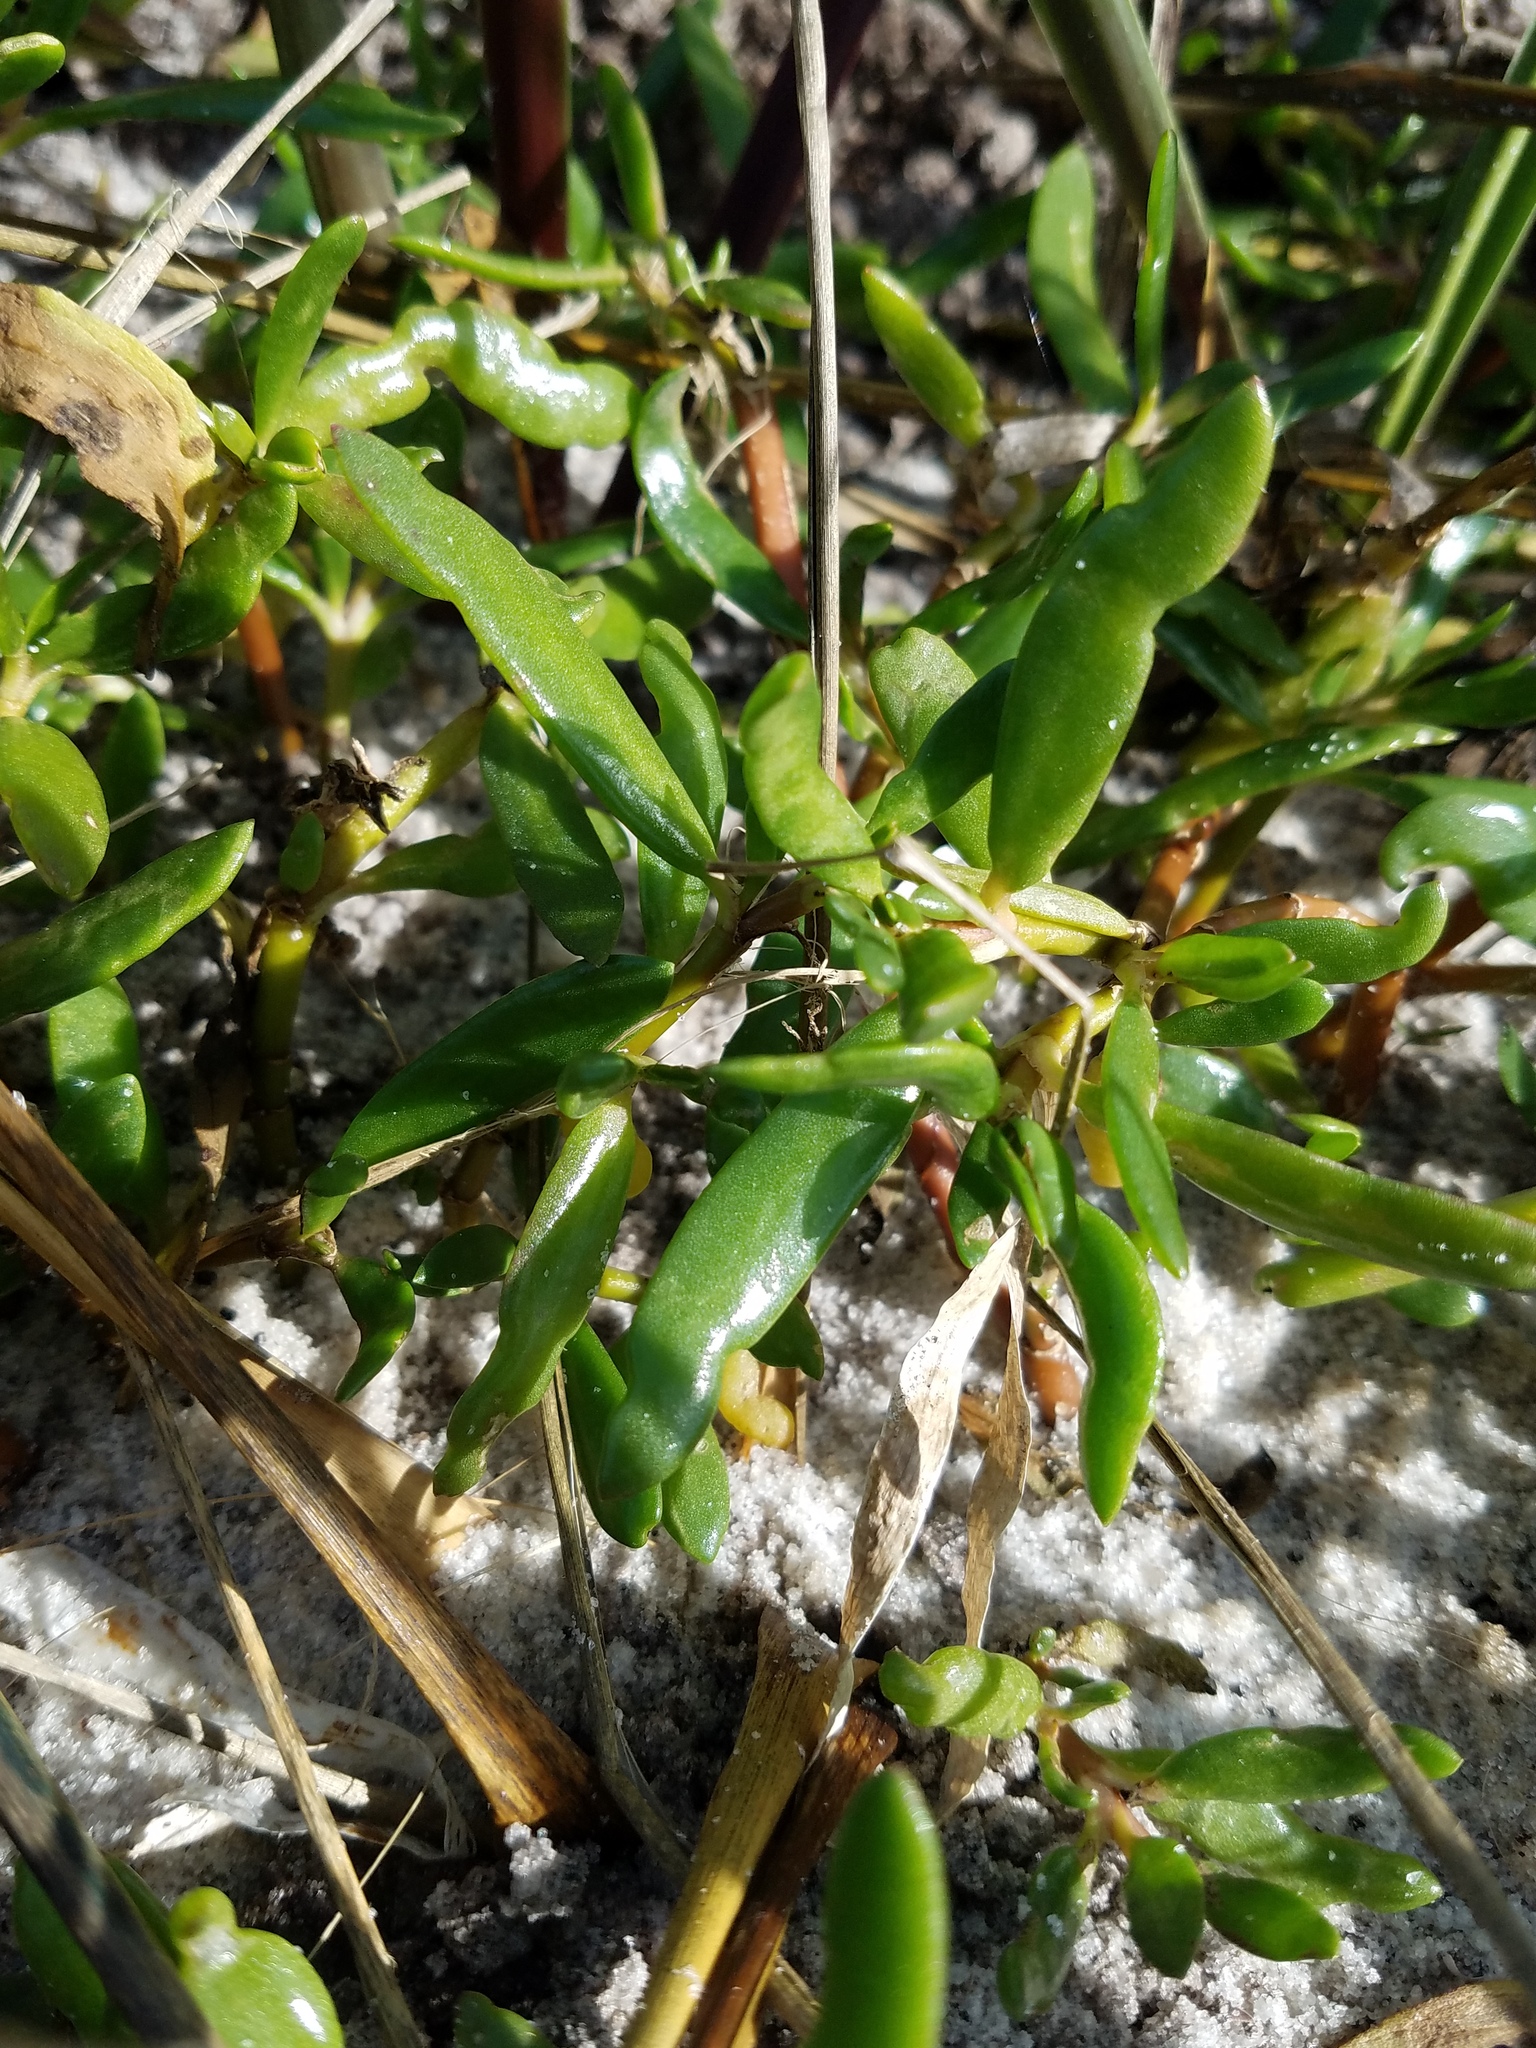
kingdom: Plantae
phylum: Tracheophyta
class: Magnoliopsida
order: Caryophyllales
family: Aizoaceae
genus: Sesuvium
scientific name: Sesuvium portulacastrum
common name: Sea-purslane
